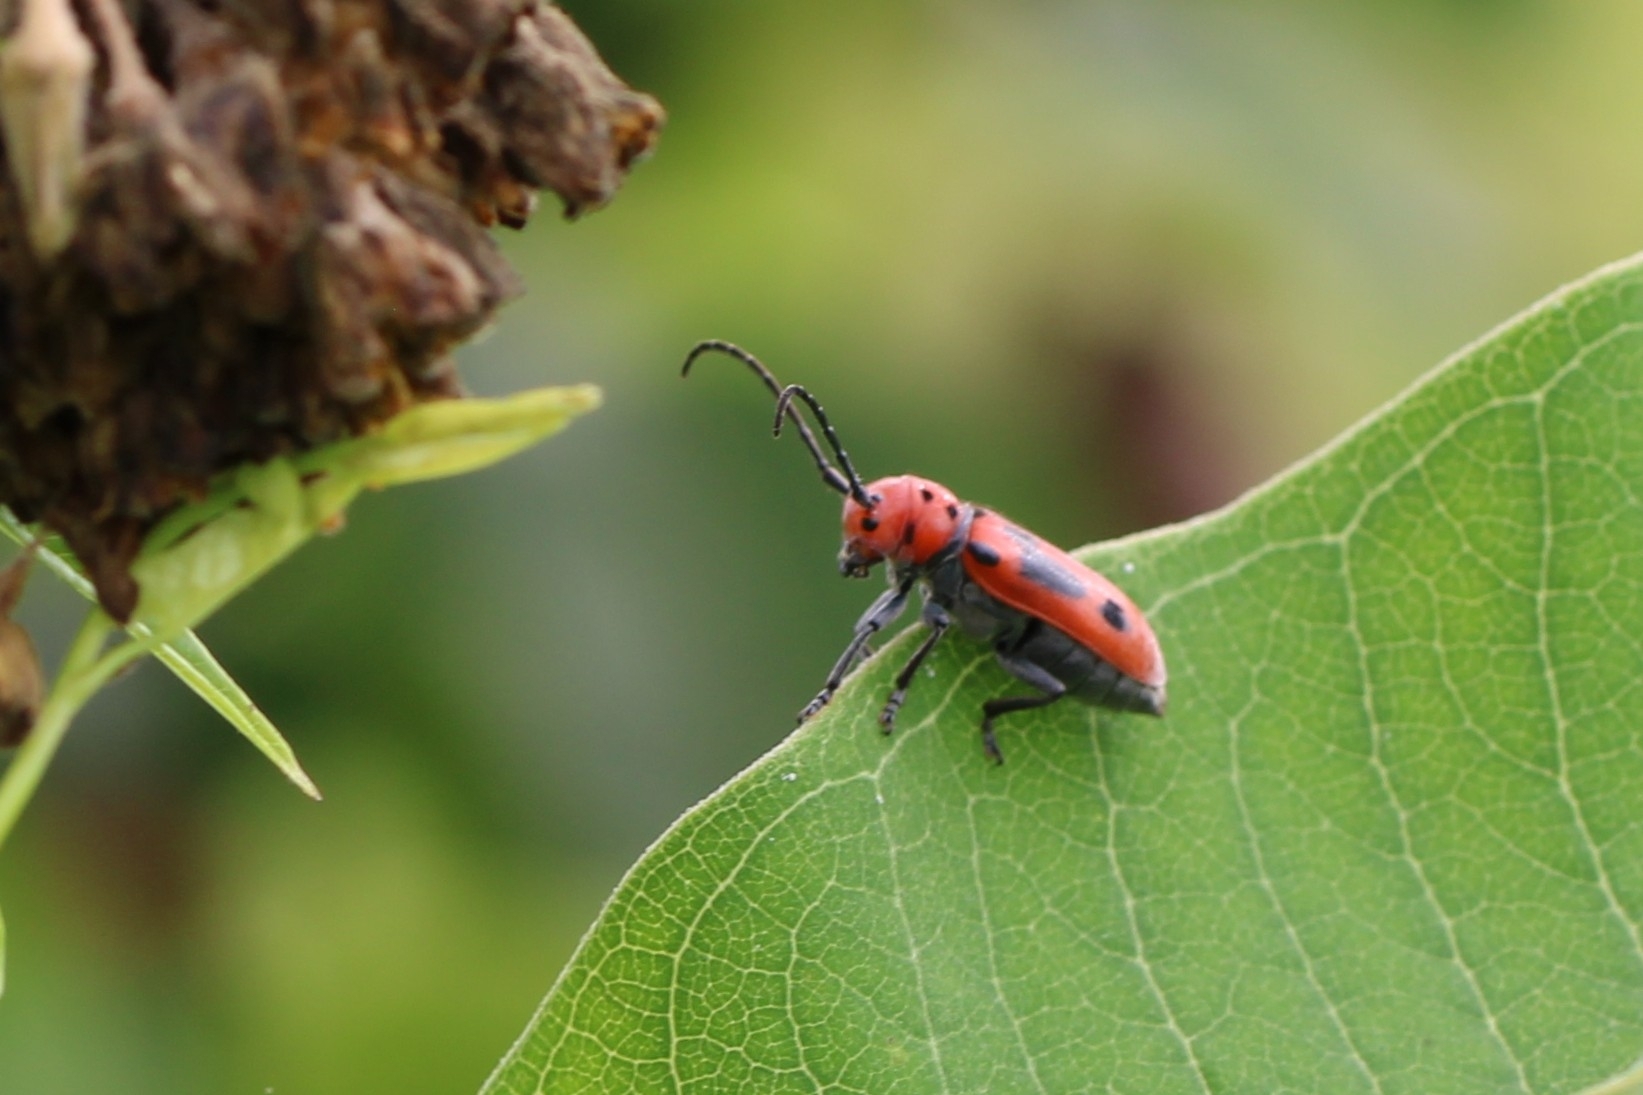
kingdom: Animalia
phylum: Arthropoda
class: Insecta
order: Coleoptera
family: Cerambycidae
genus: Tetraopes
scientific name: Tetraopes tetrophthalmus
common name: Red milkweed beetle
